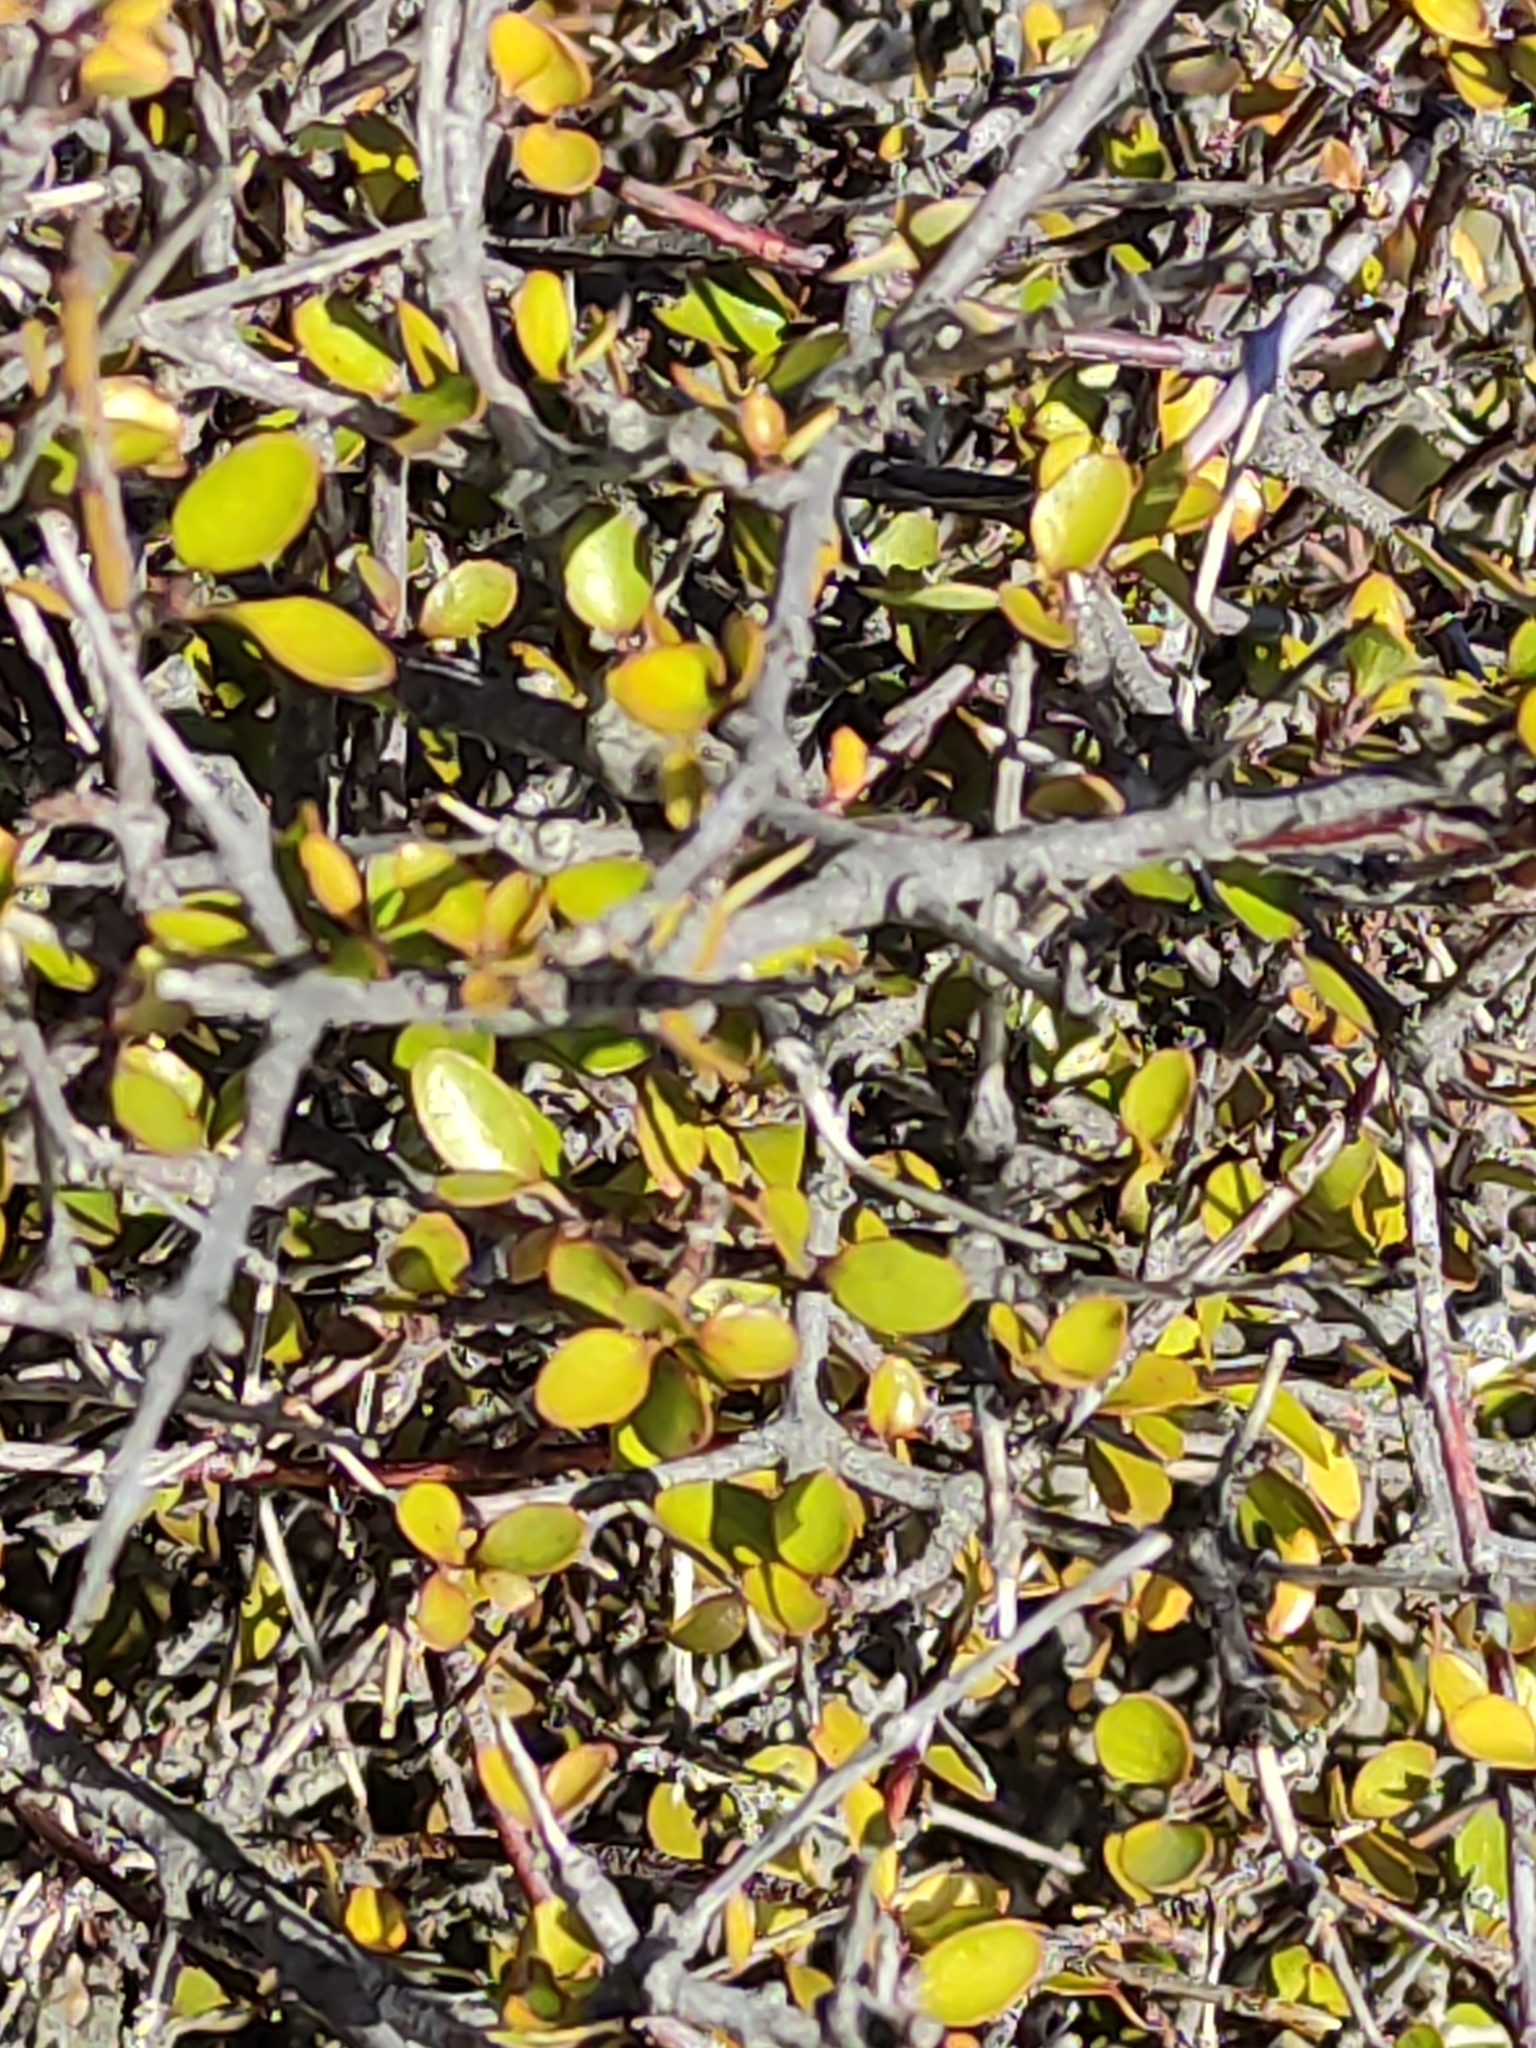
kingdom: Plantae
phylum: Tracheophyta
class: Magnoliopsida
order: Oxalidales
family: Elaeocarpaceae
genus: Aristotelia
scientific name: Aristotelia fruticosa
